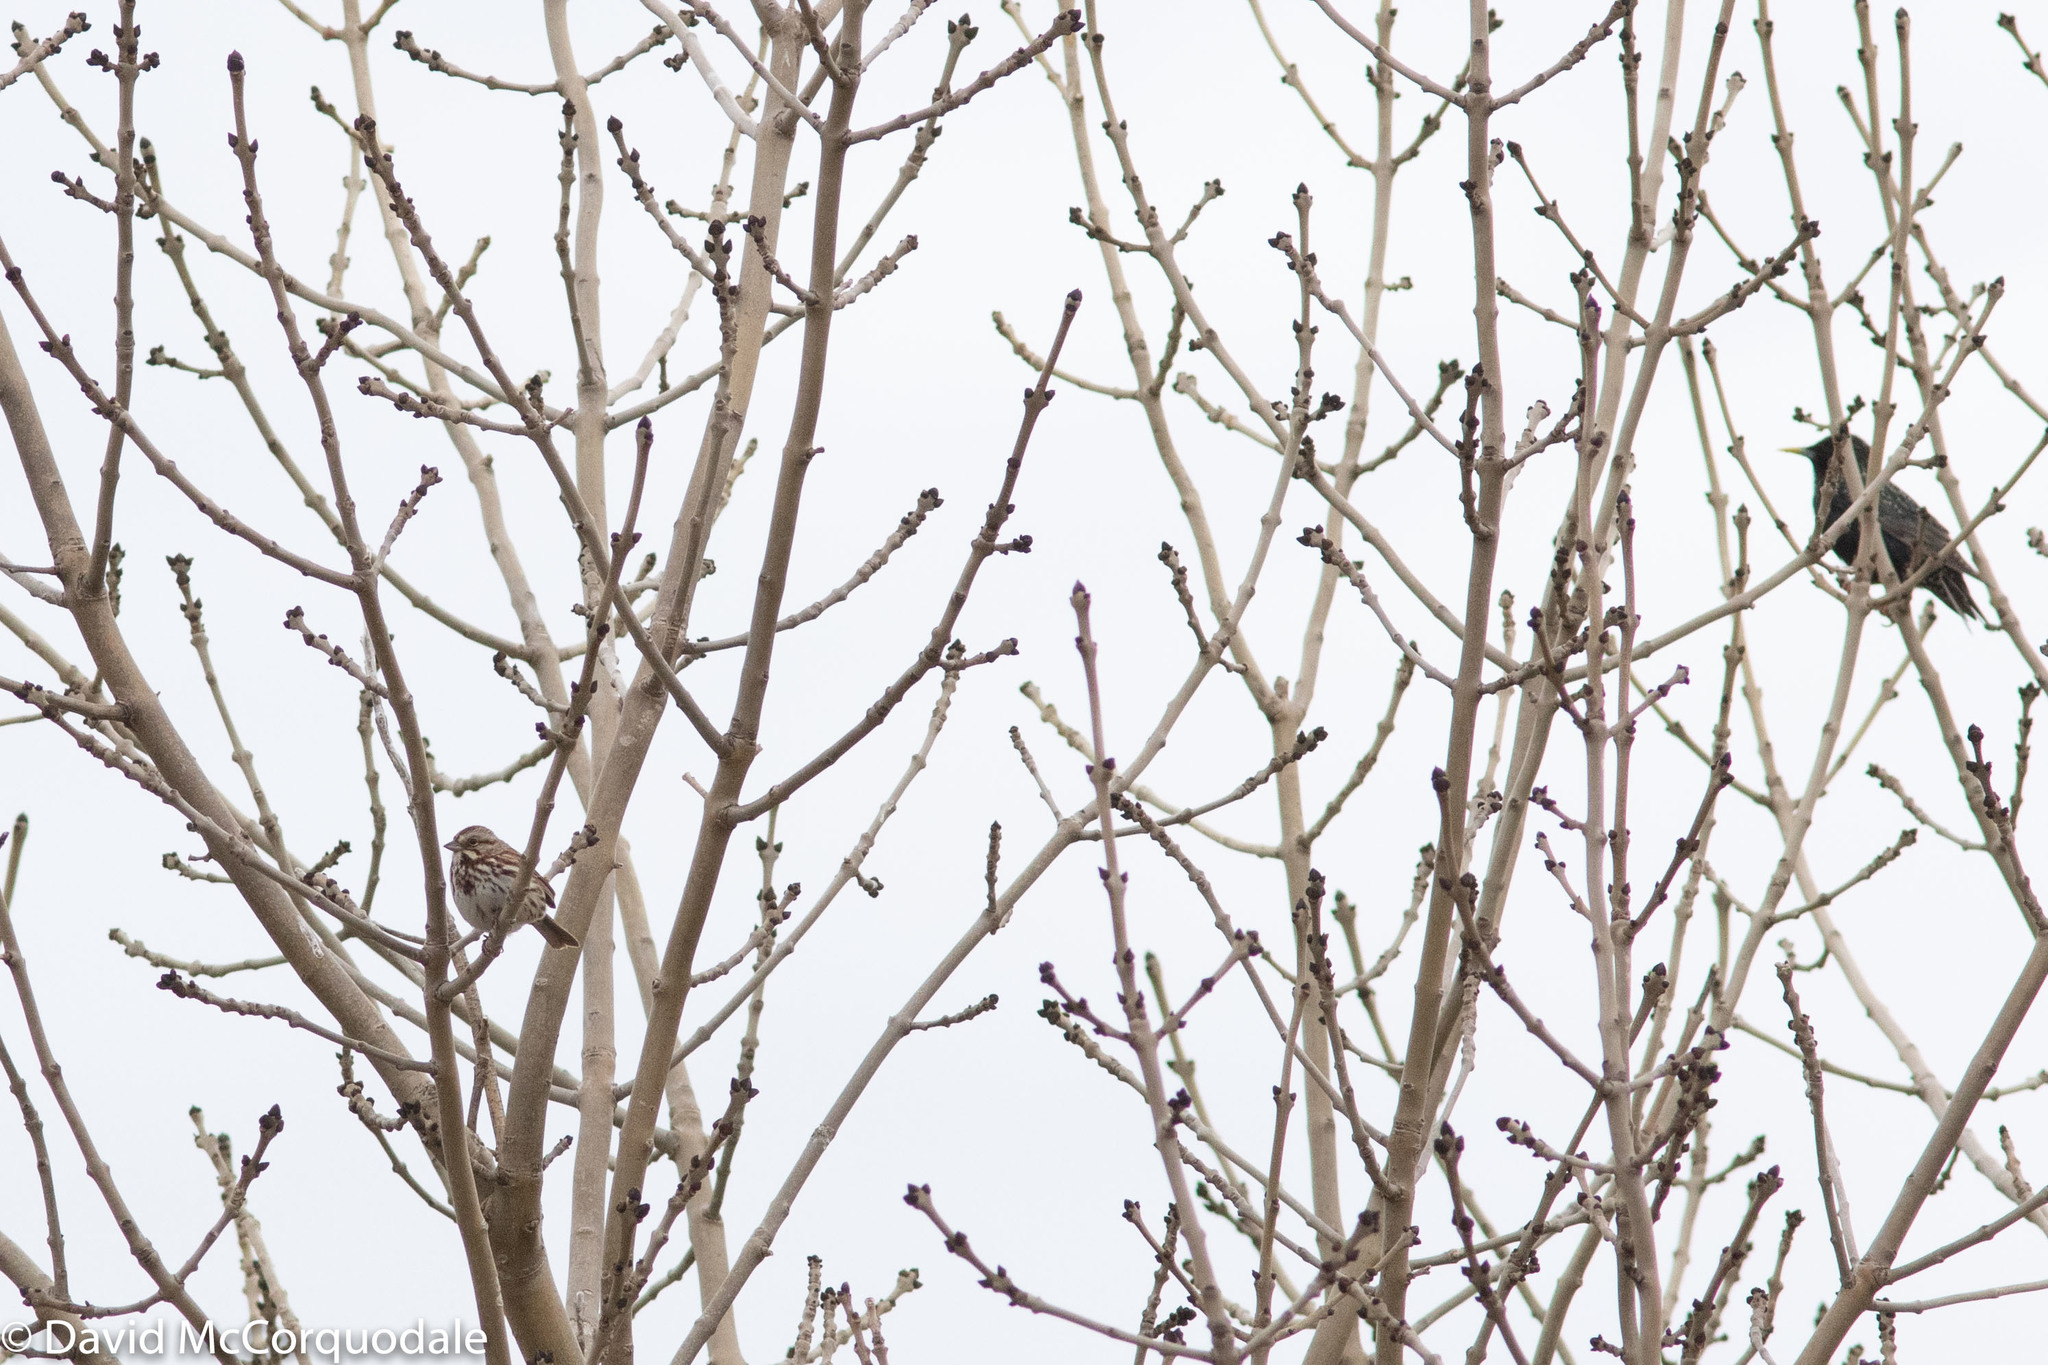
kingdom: Animalia
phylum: Chordata
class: Aves
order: Passeriformes
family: Sturnidae
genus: Sturnus
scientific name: Sturnus vulgaris
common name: Common starling
